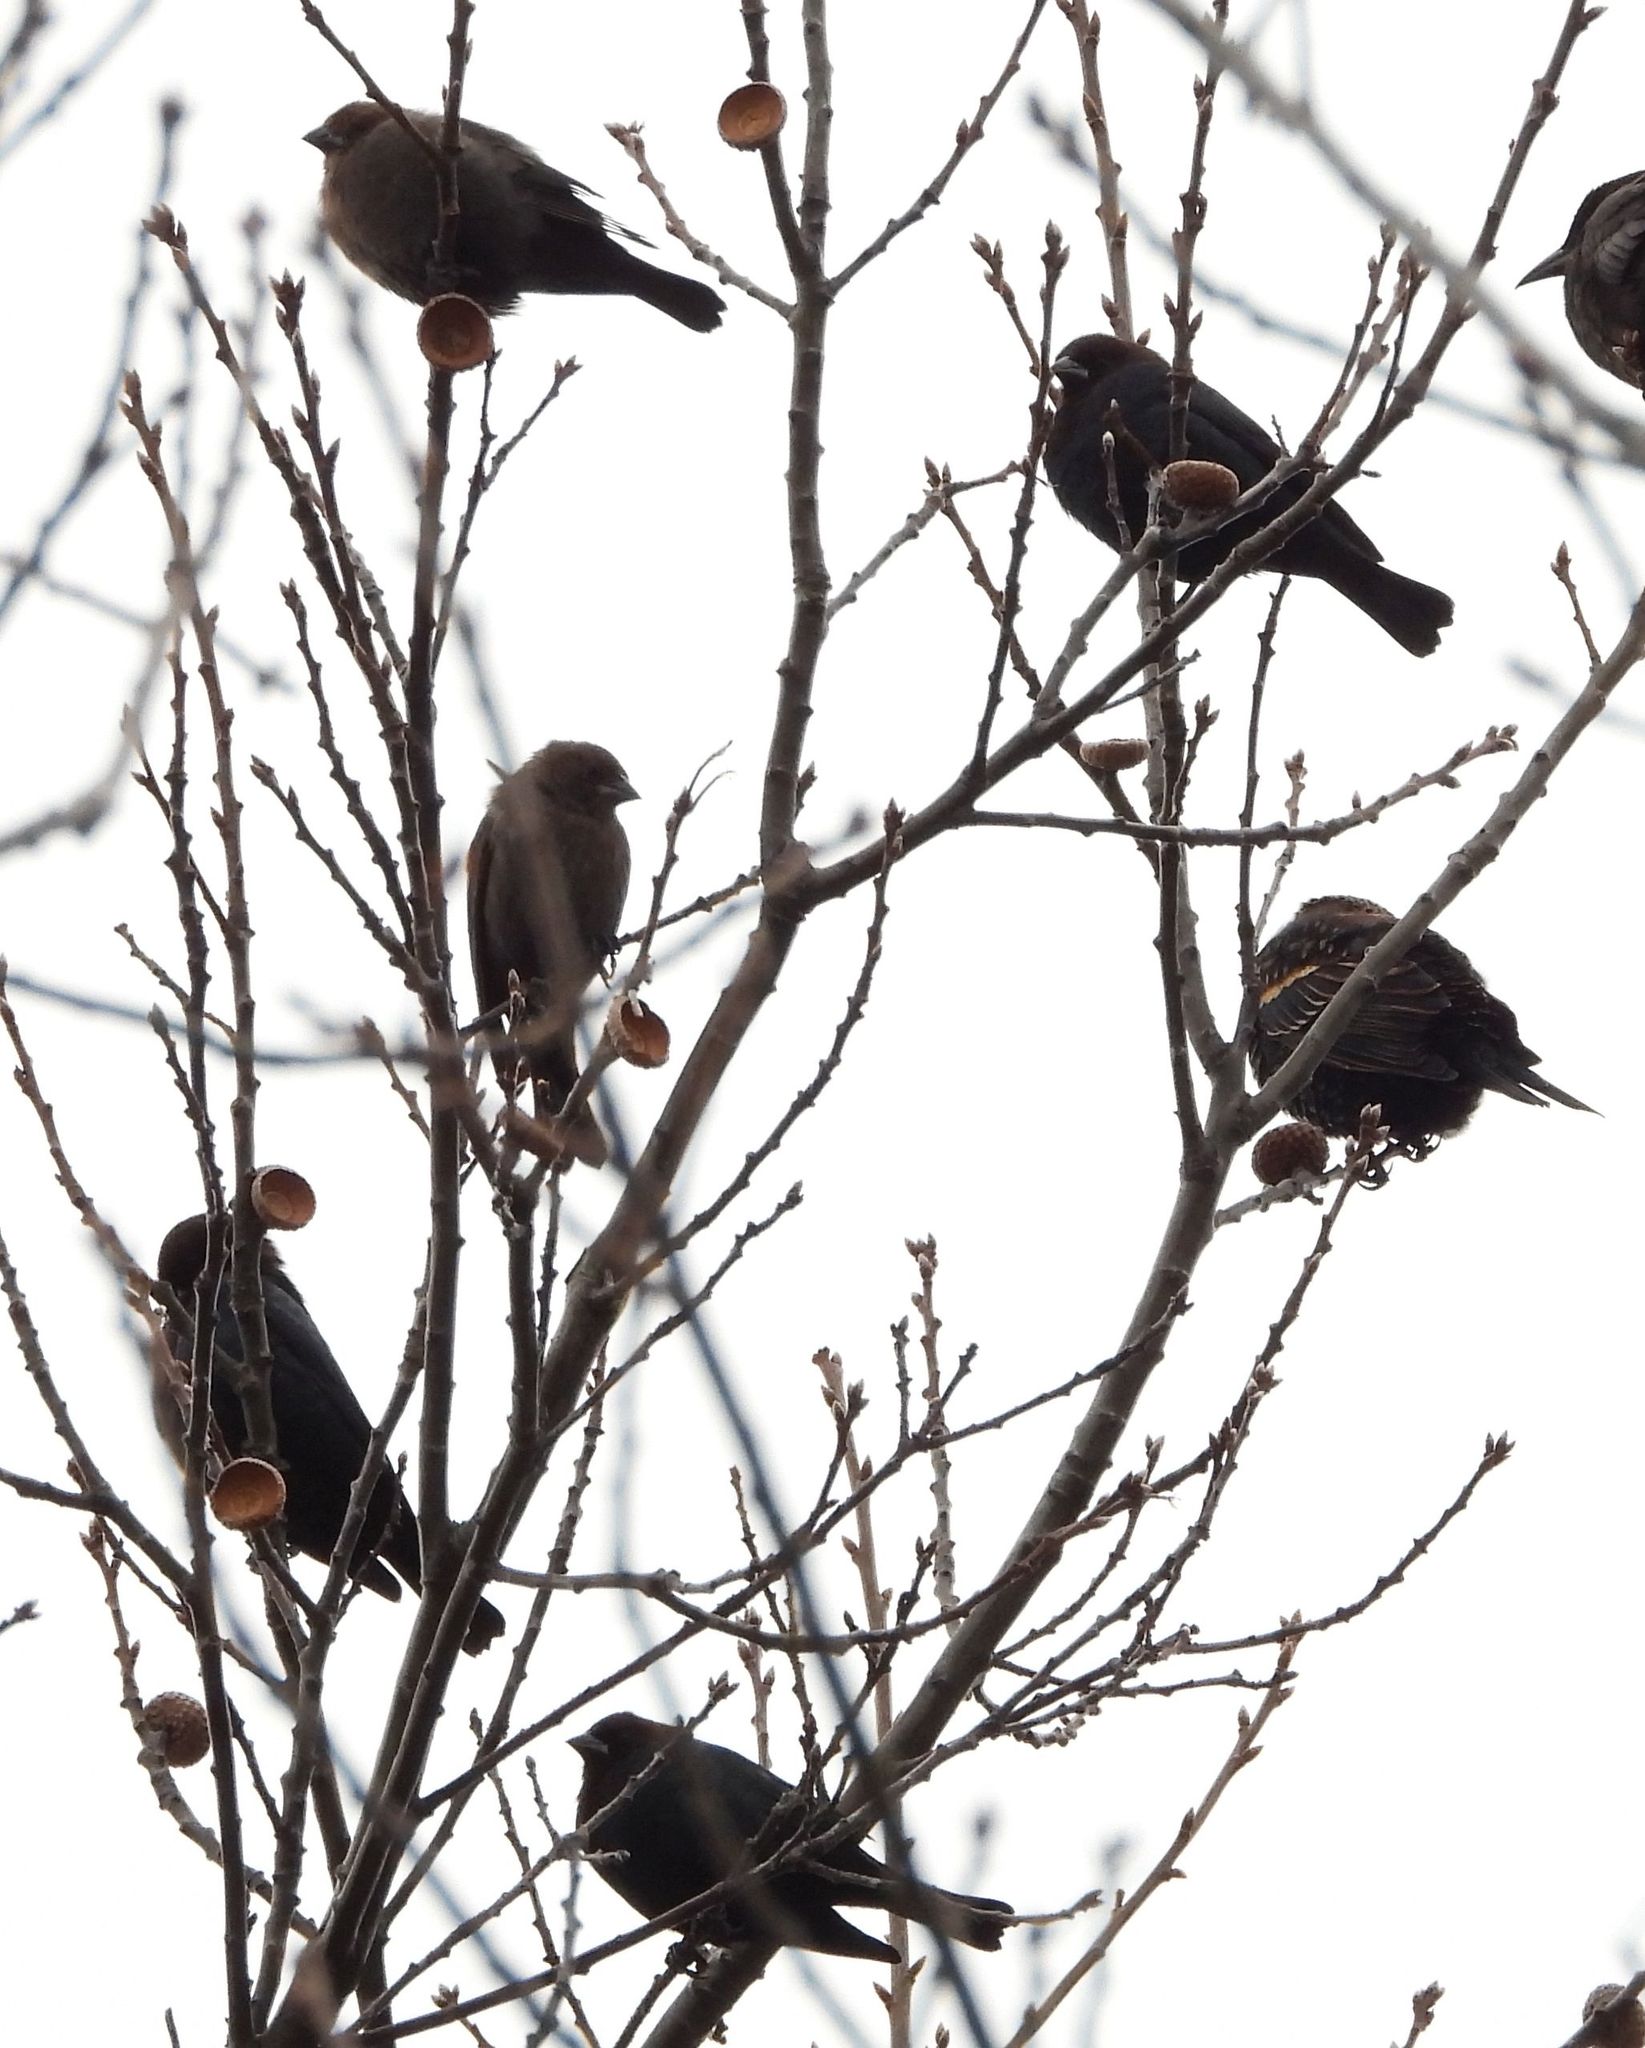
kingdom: Animalia
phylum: Chordata
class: Aves
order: Passeriformes
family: Icteridae
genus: Molothrus
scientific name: Molothrus ater
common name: Brown-headed cowbird
